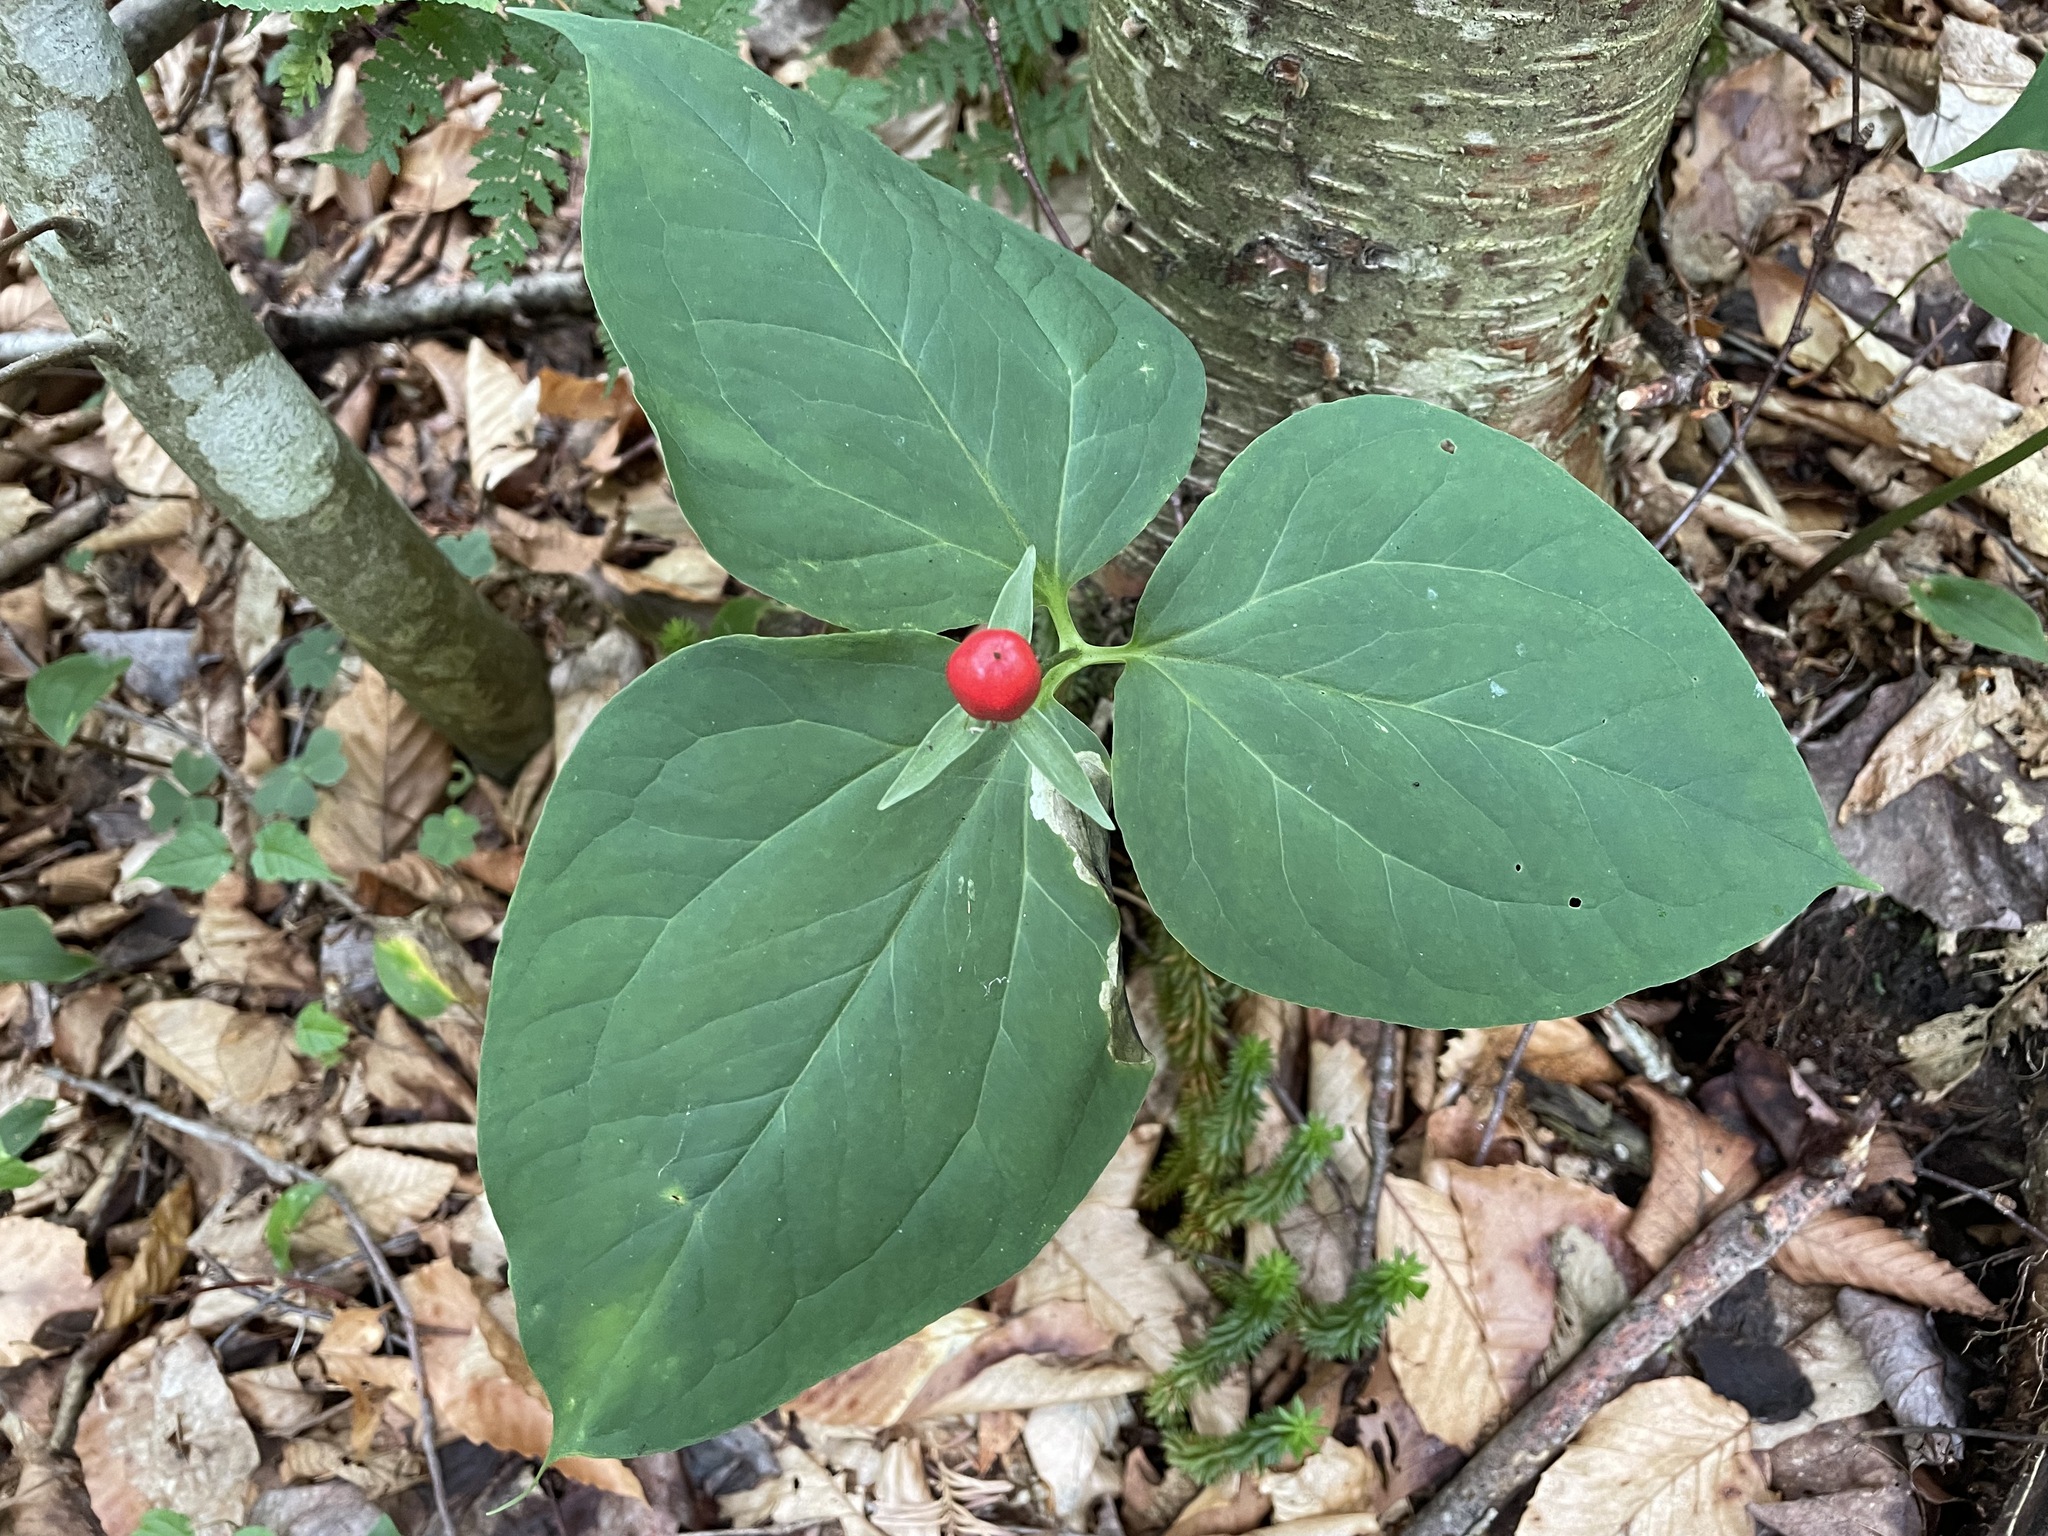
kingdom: Plantae
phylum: Tracheophyta
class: Liliopsida
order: Liliales
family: Melanthiaceae
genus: Trillium
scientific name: Trillium undulatum
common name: Paint trillium
